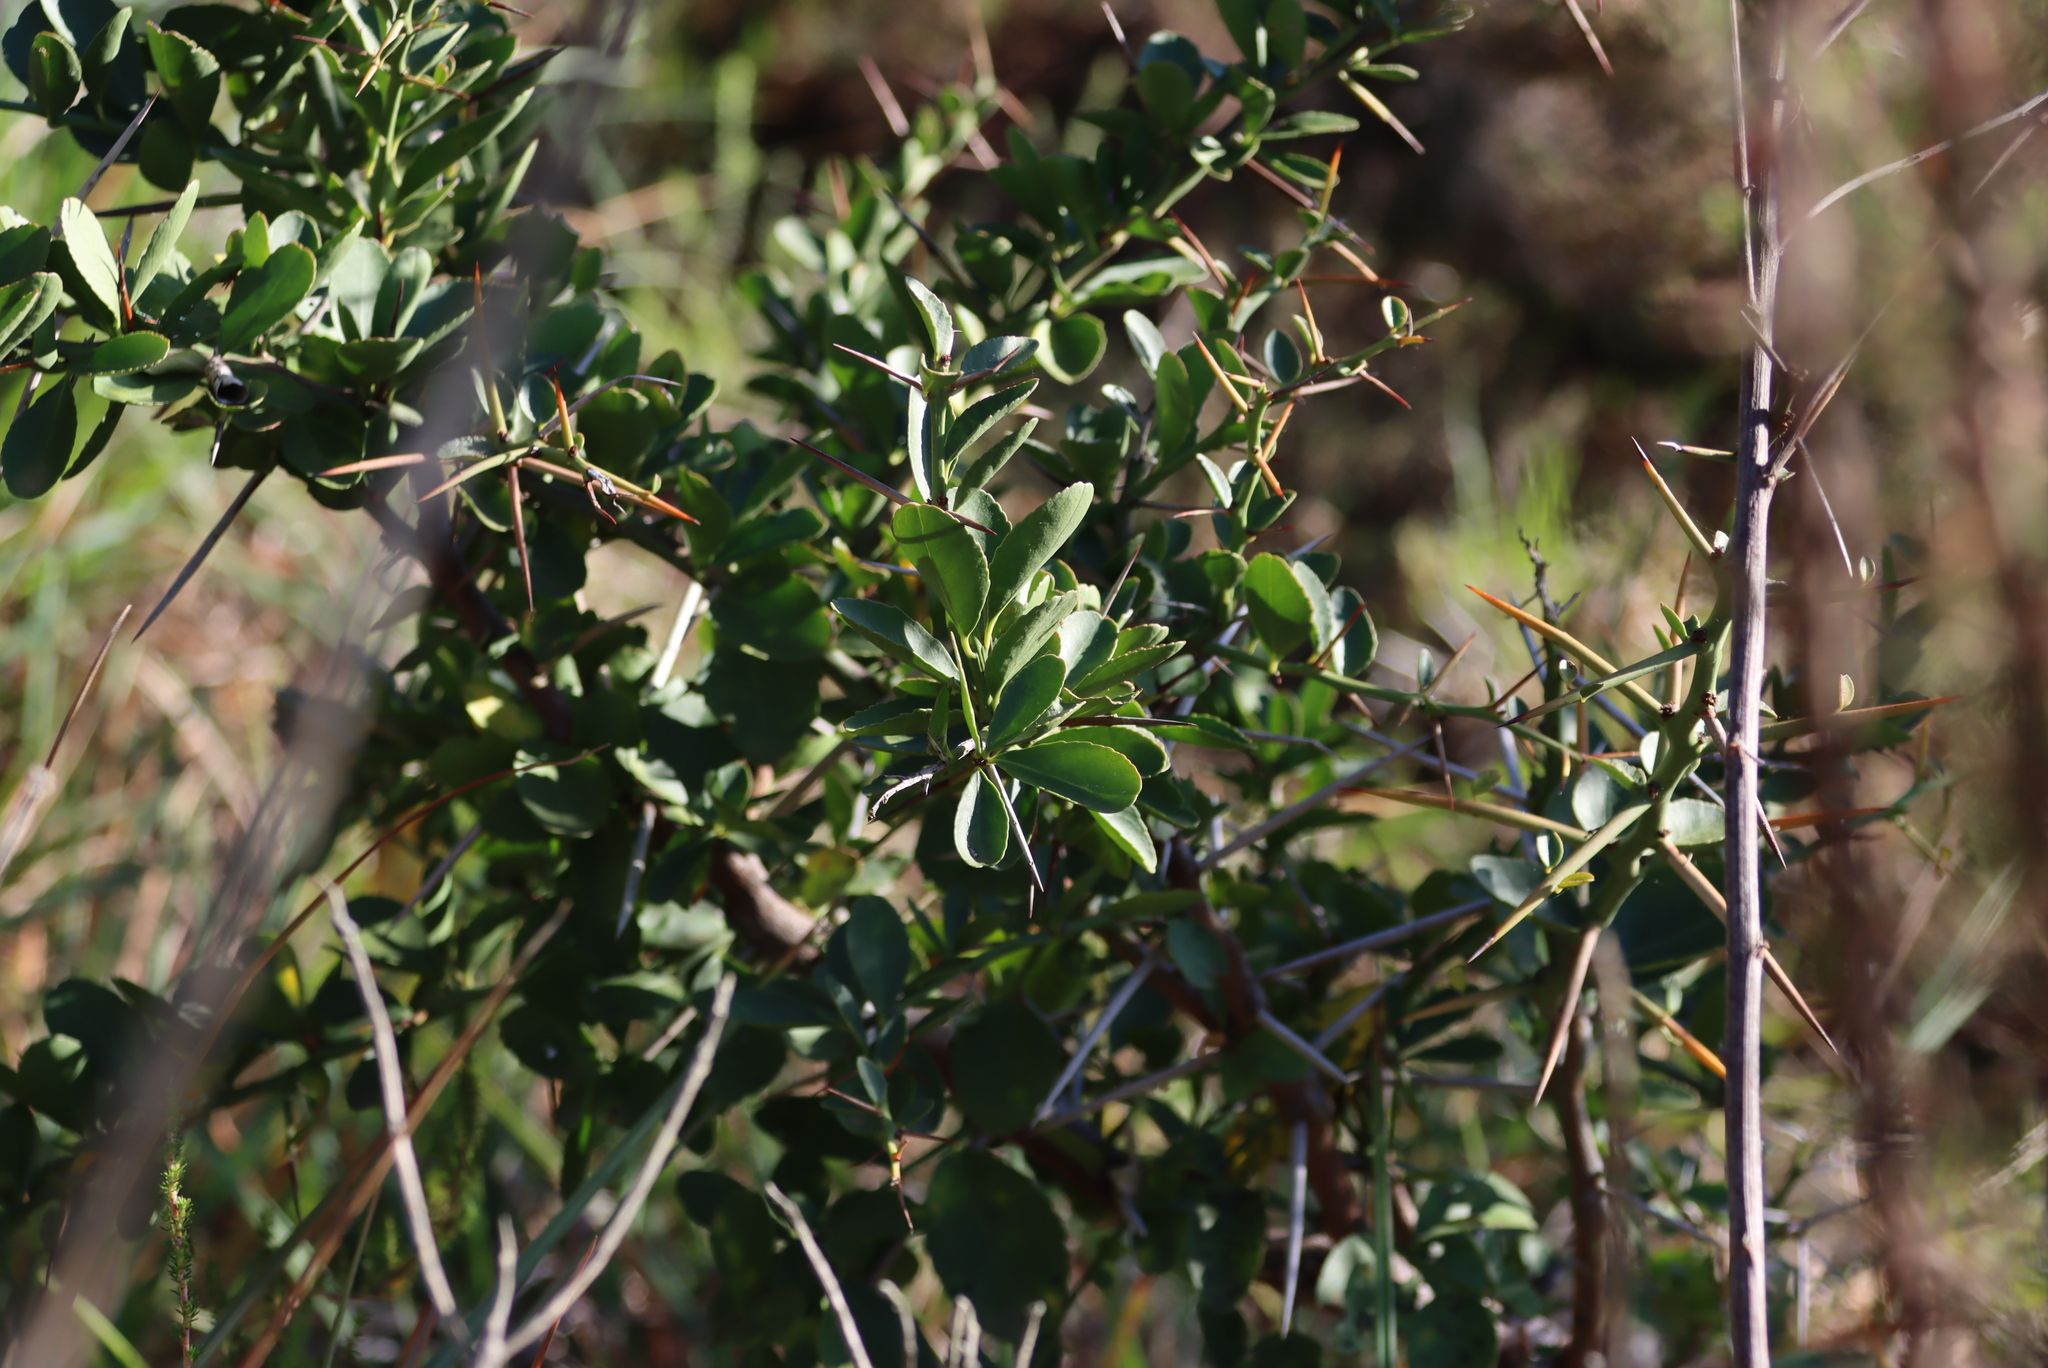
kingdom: Plantae
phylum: Tracheophyta
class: Magnoliopsida
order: Celastrales
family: Celastraceae
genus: Gymnosporia
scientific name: Gymnosporia buxifolia
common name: Common spike-thorn
